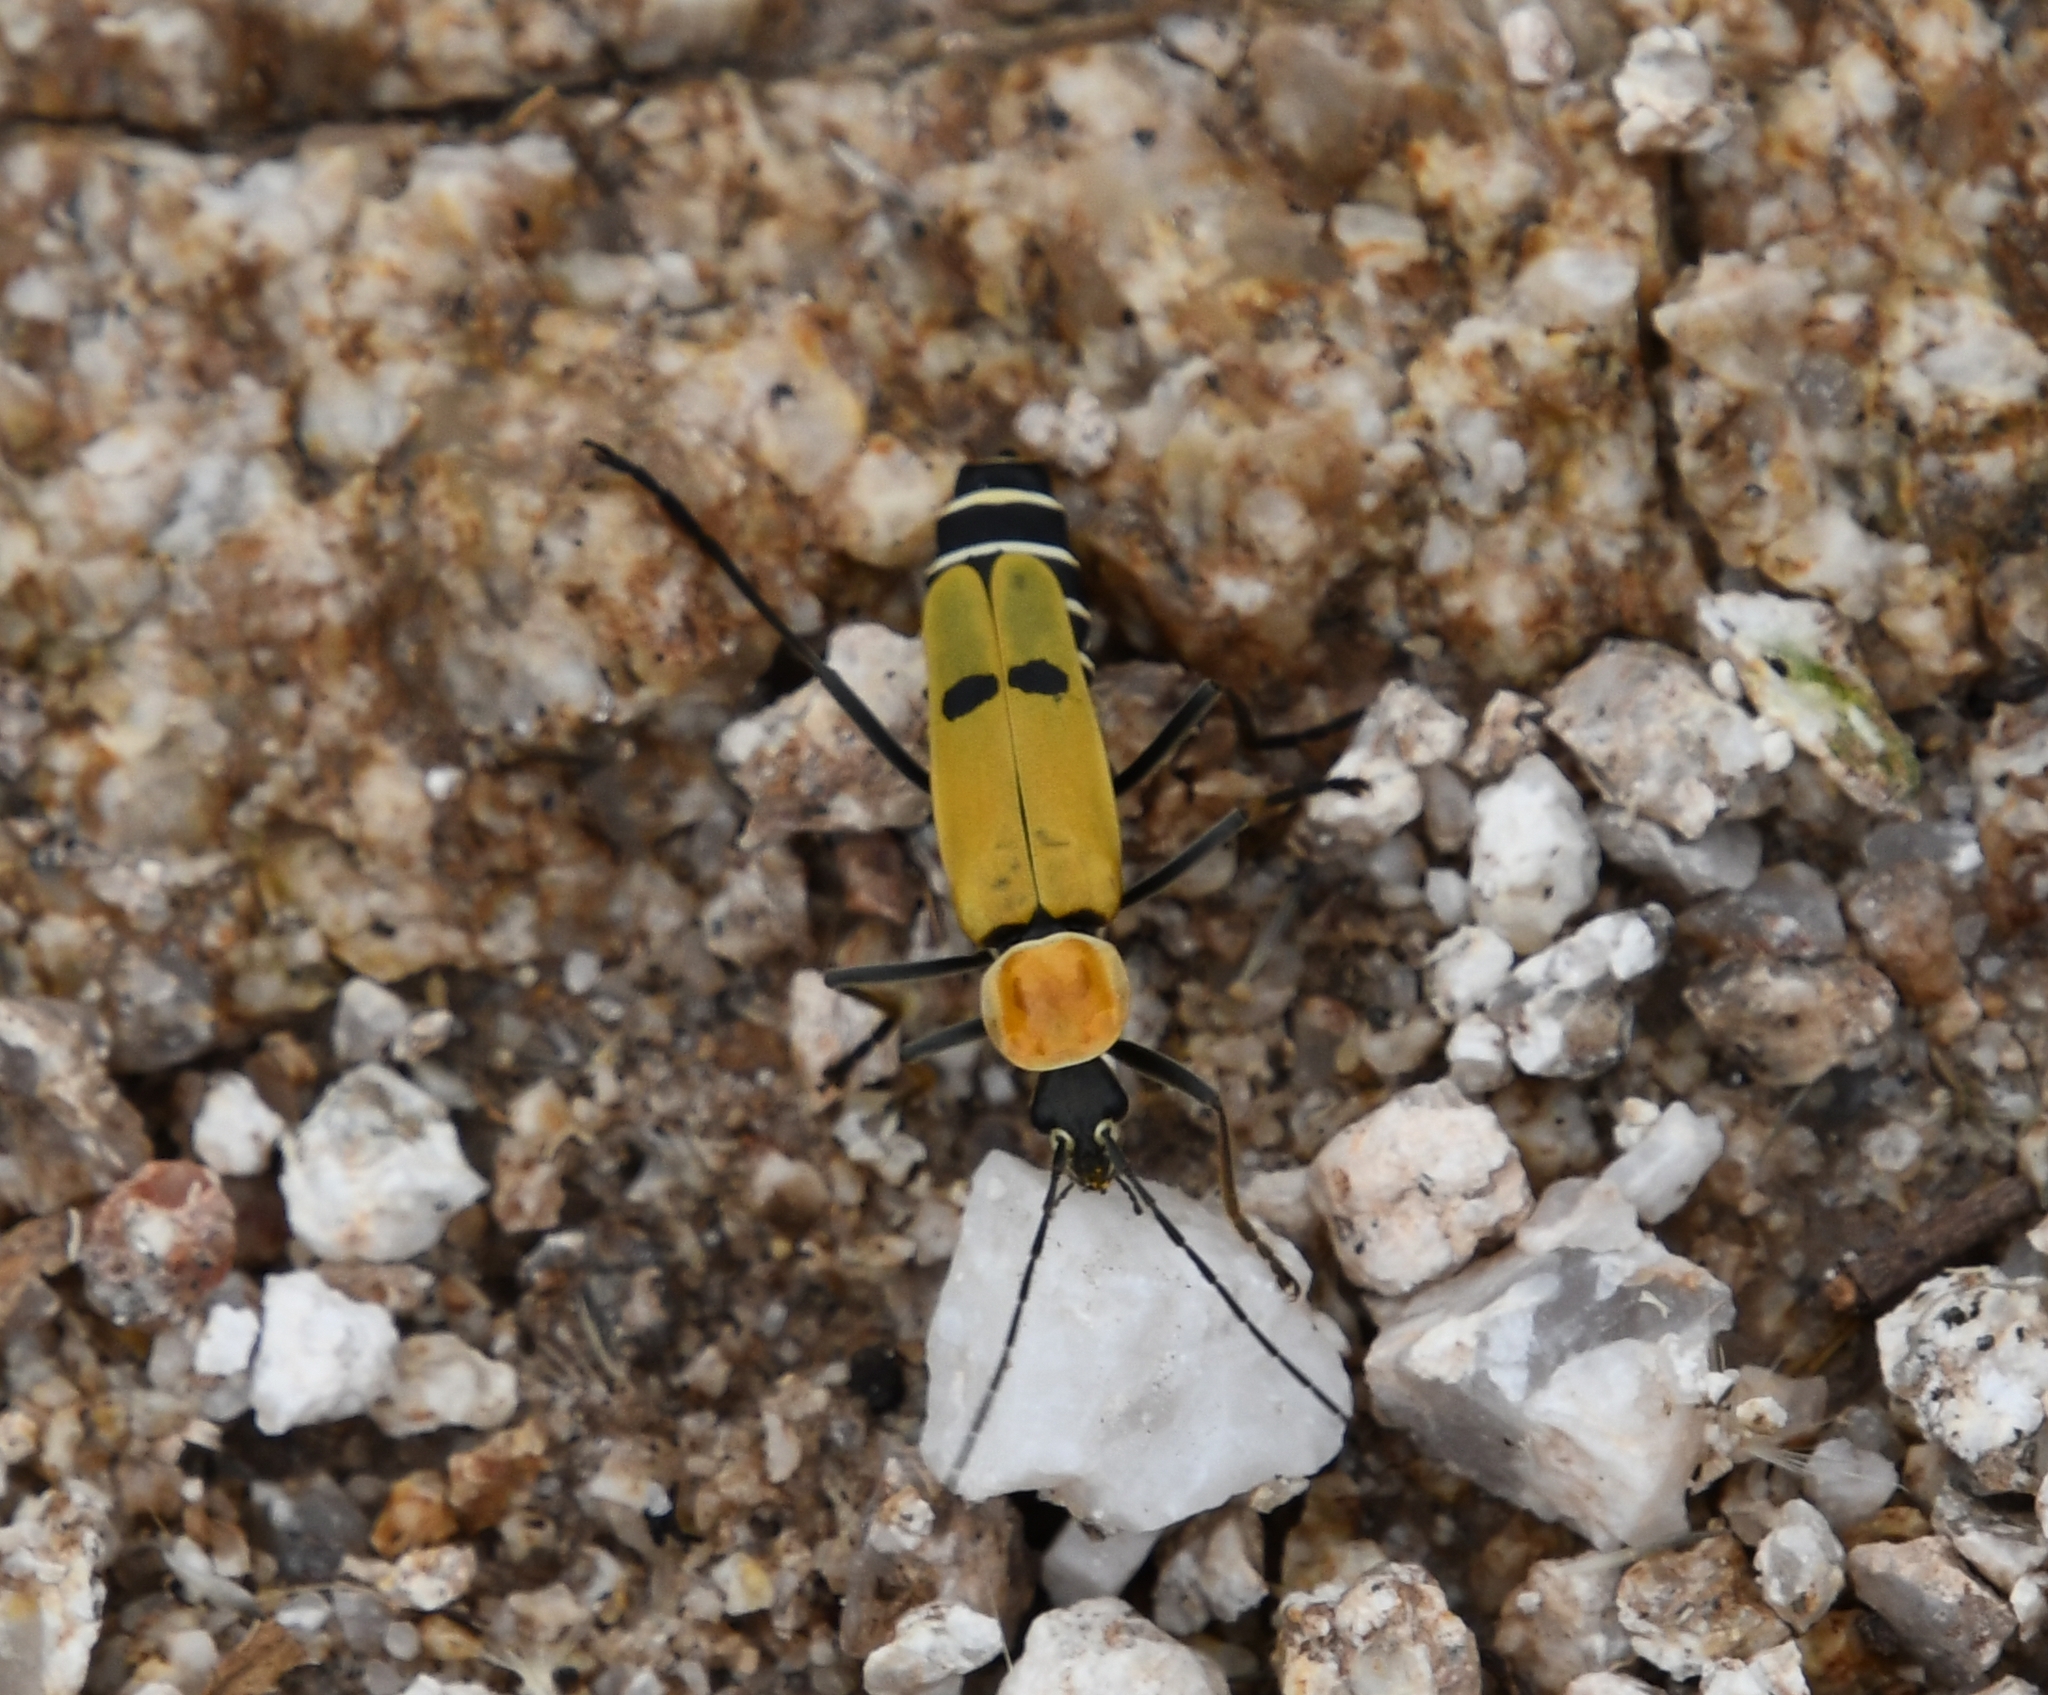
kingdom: Animalia
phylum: Arthropoda
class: Insecta
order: Coleoptera
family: Cantharidae
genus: Chauliognathus
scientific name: Chauliognathus misellus
